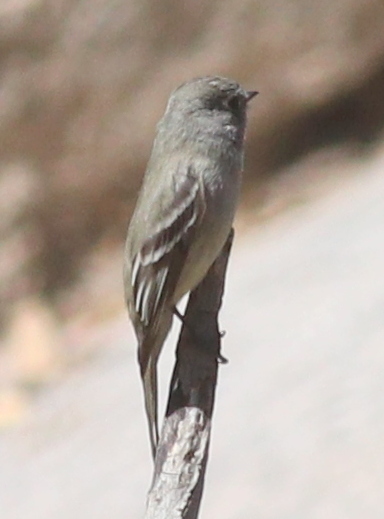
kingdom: Animalia
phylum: Chordata
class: Aves
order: Passeriformes
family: Tyrannidae
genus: Empidonax
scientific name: Empidonax hammondii
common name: Hammond's flycatcher
